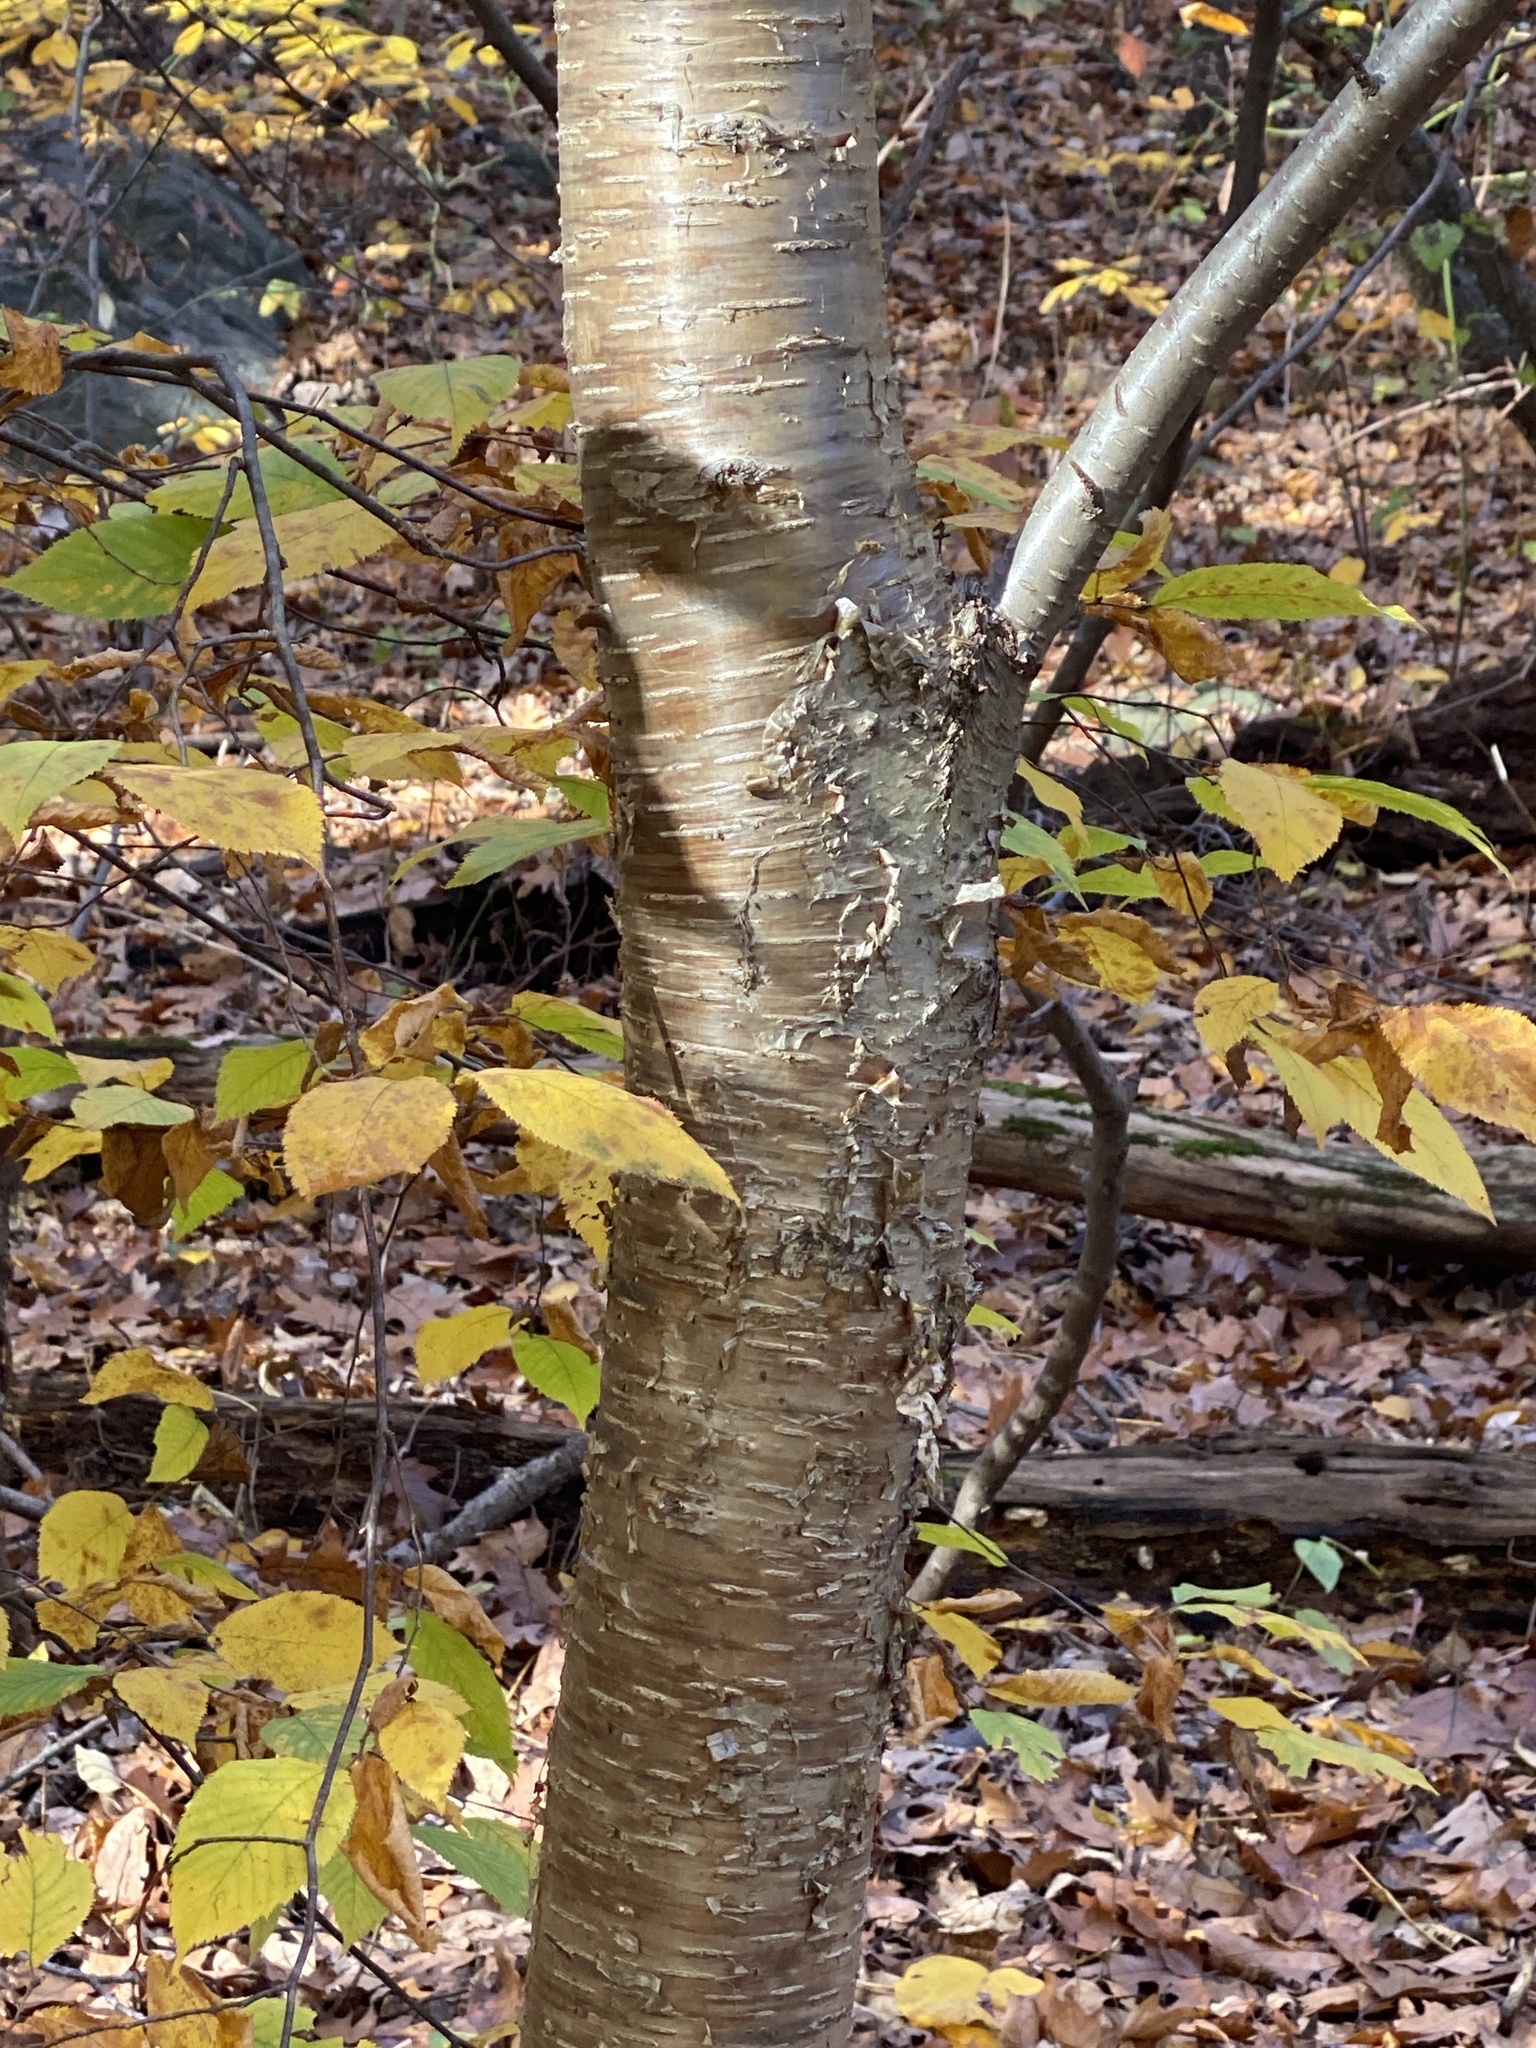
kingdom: Plantae
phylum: Tracheophyta
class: Magnoliopsida
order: Fagales
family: Betulaceae
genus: Betula
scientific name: Betula alleghaniensis
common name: Yellow birch
